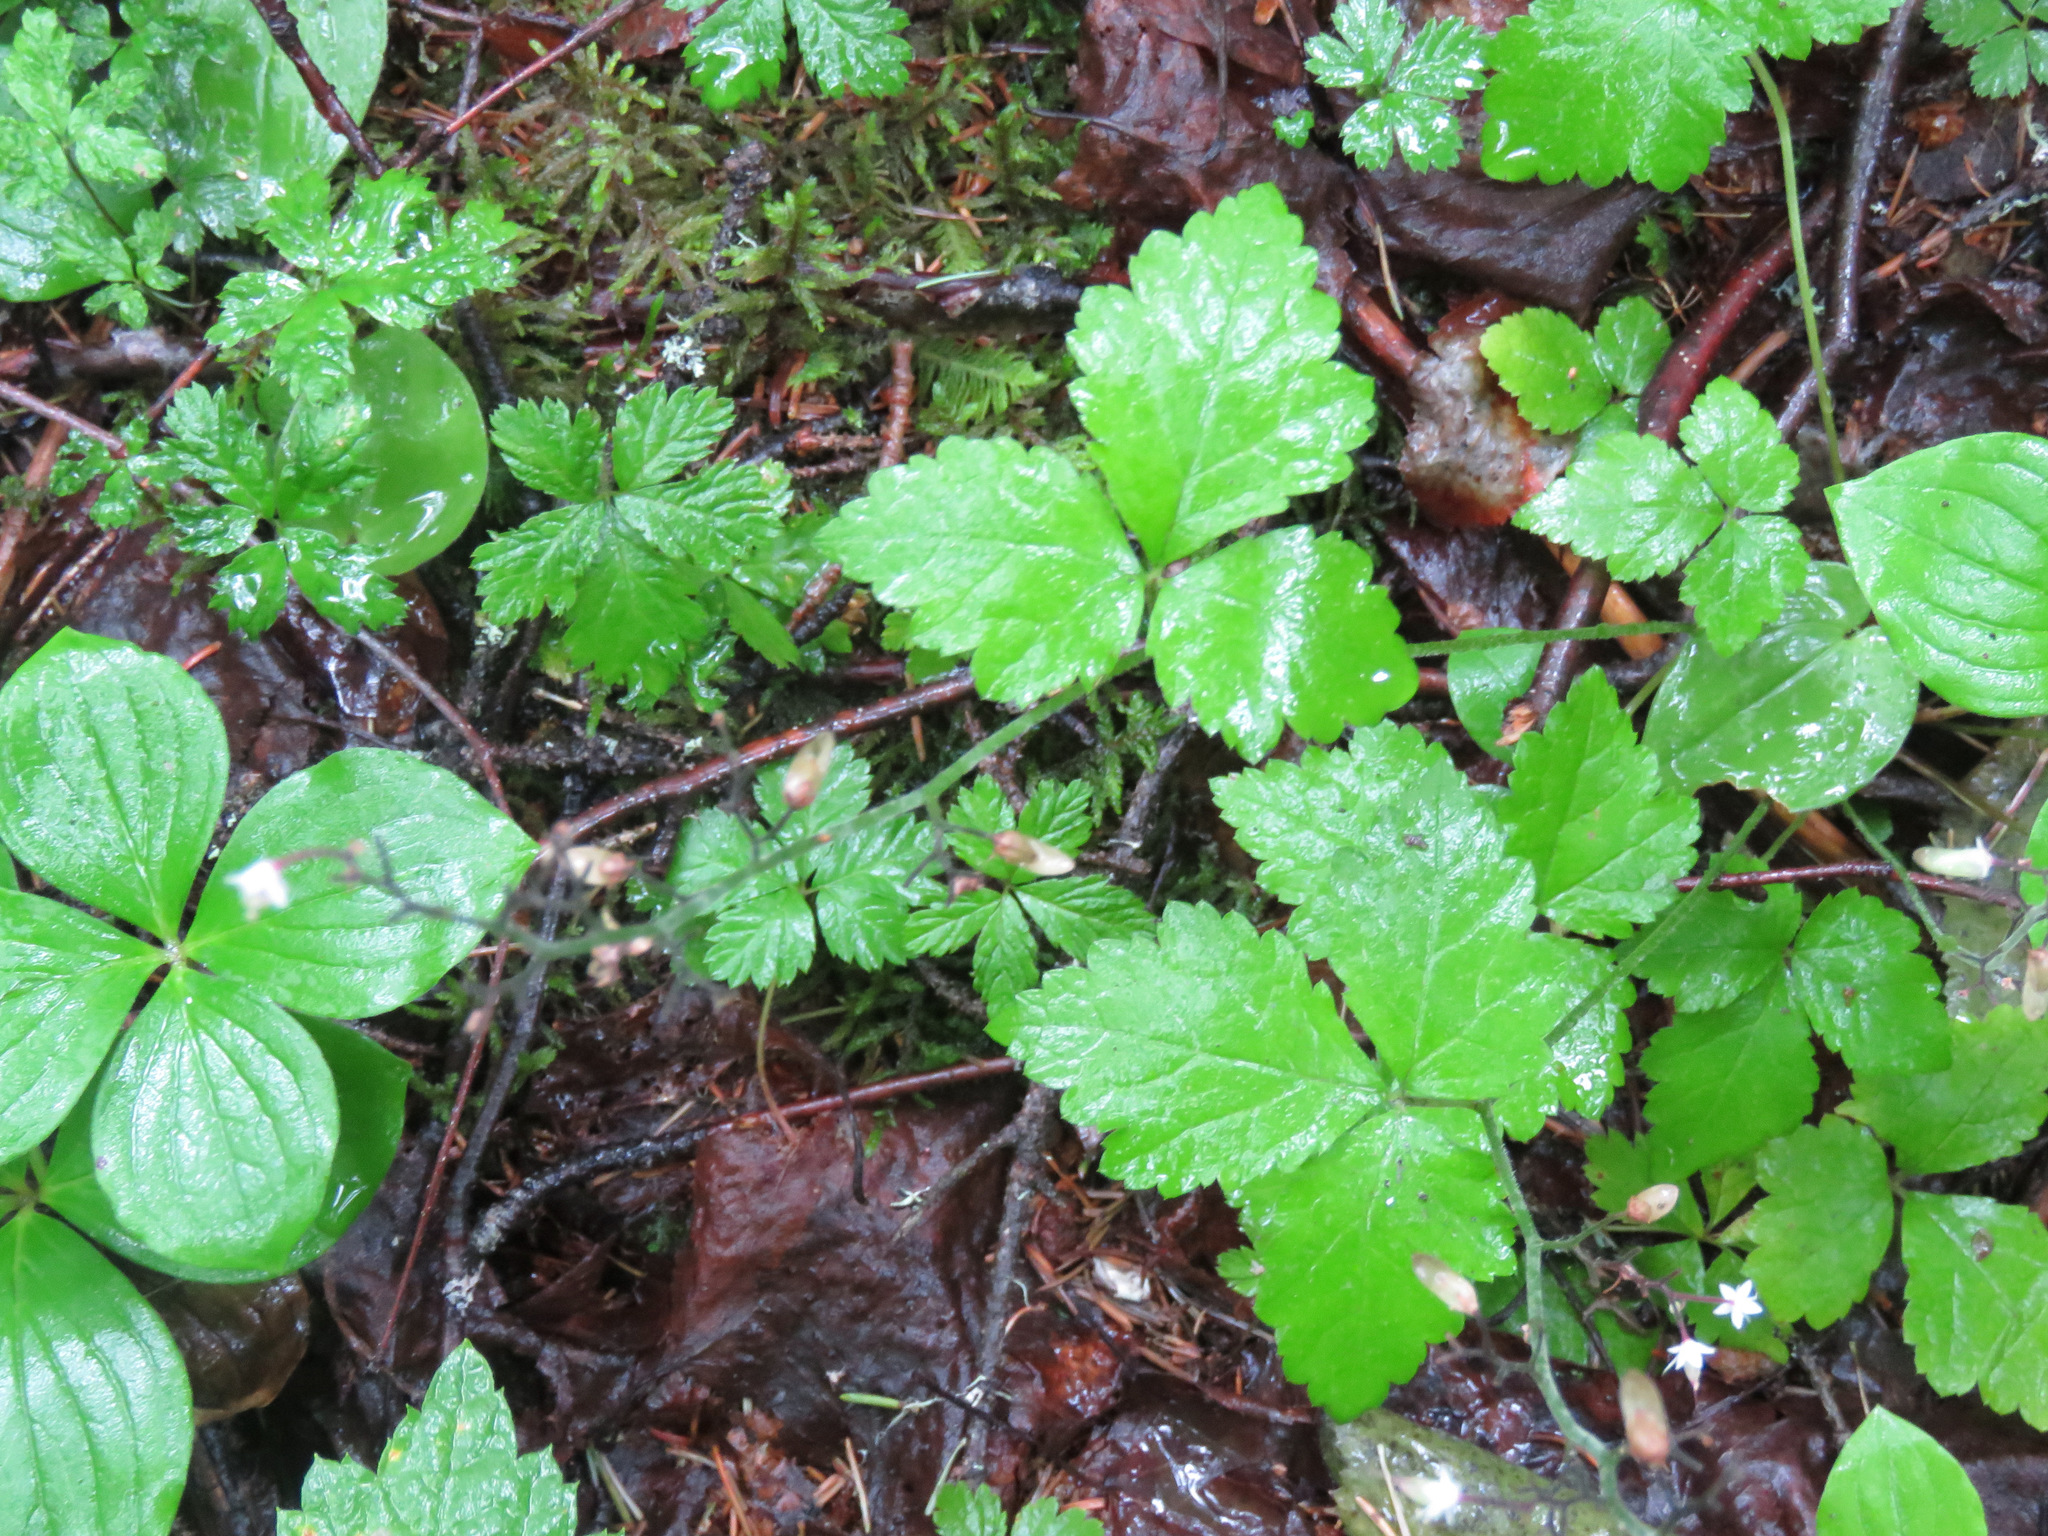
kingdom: Plantae
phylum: Tracheophyta
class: Magnoliopsida
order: Saxifragales
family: Saxifragaceae
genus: Tiarella
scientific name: Tiarella trifoliata
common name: Sugar-scoop
